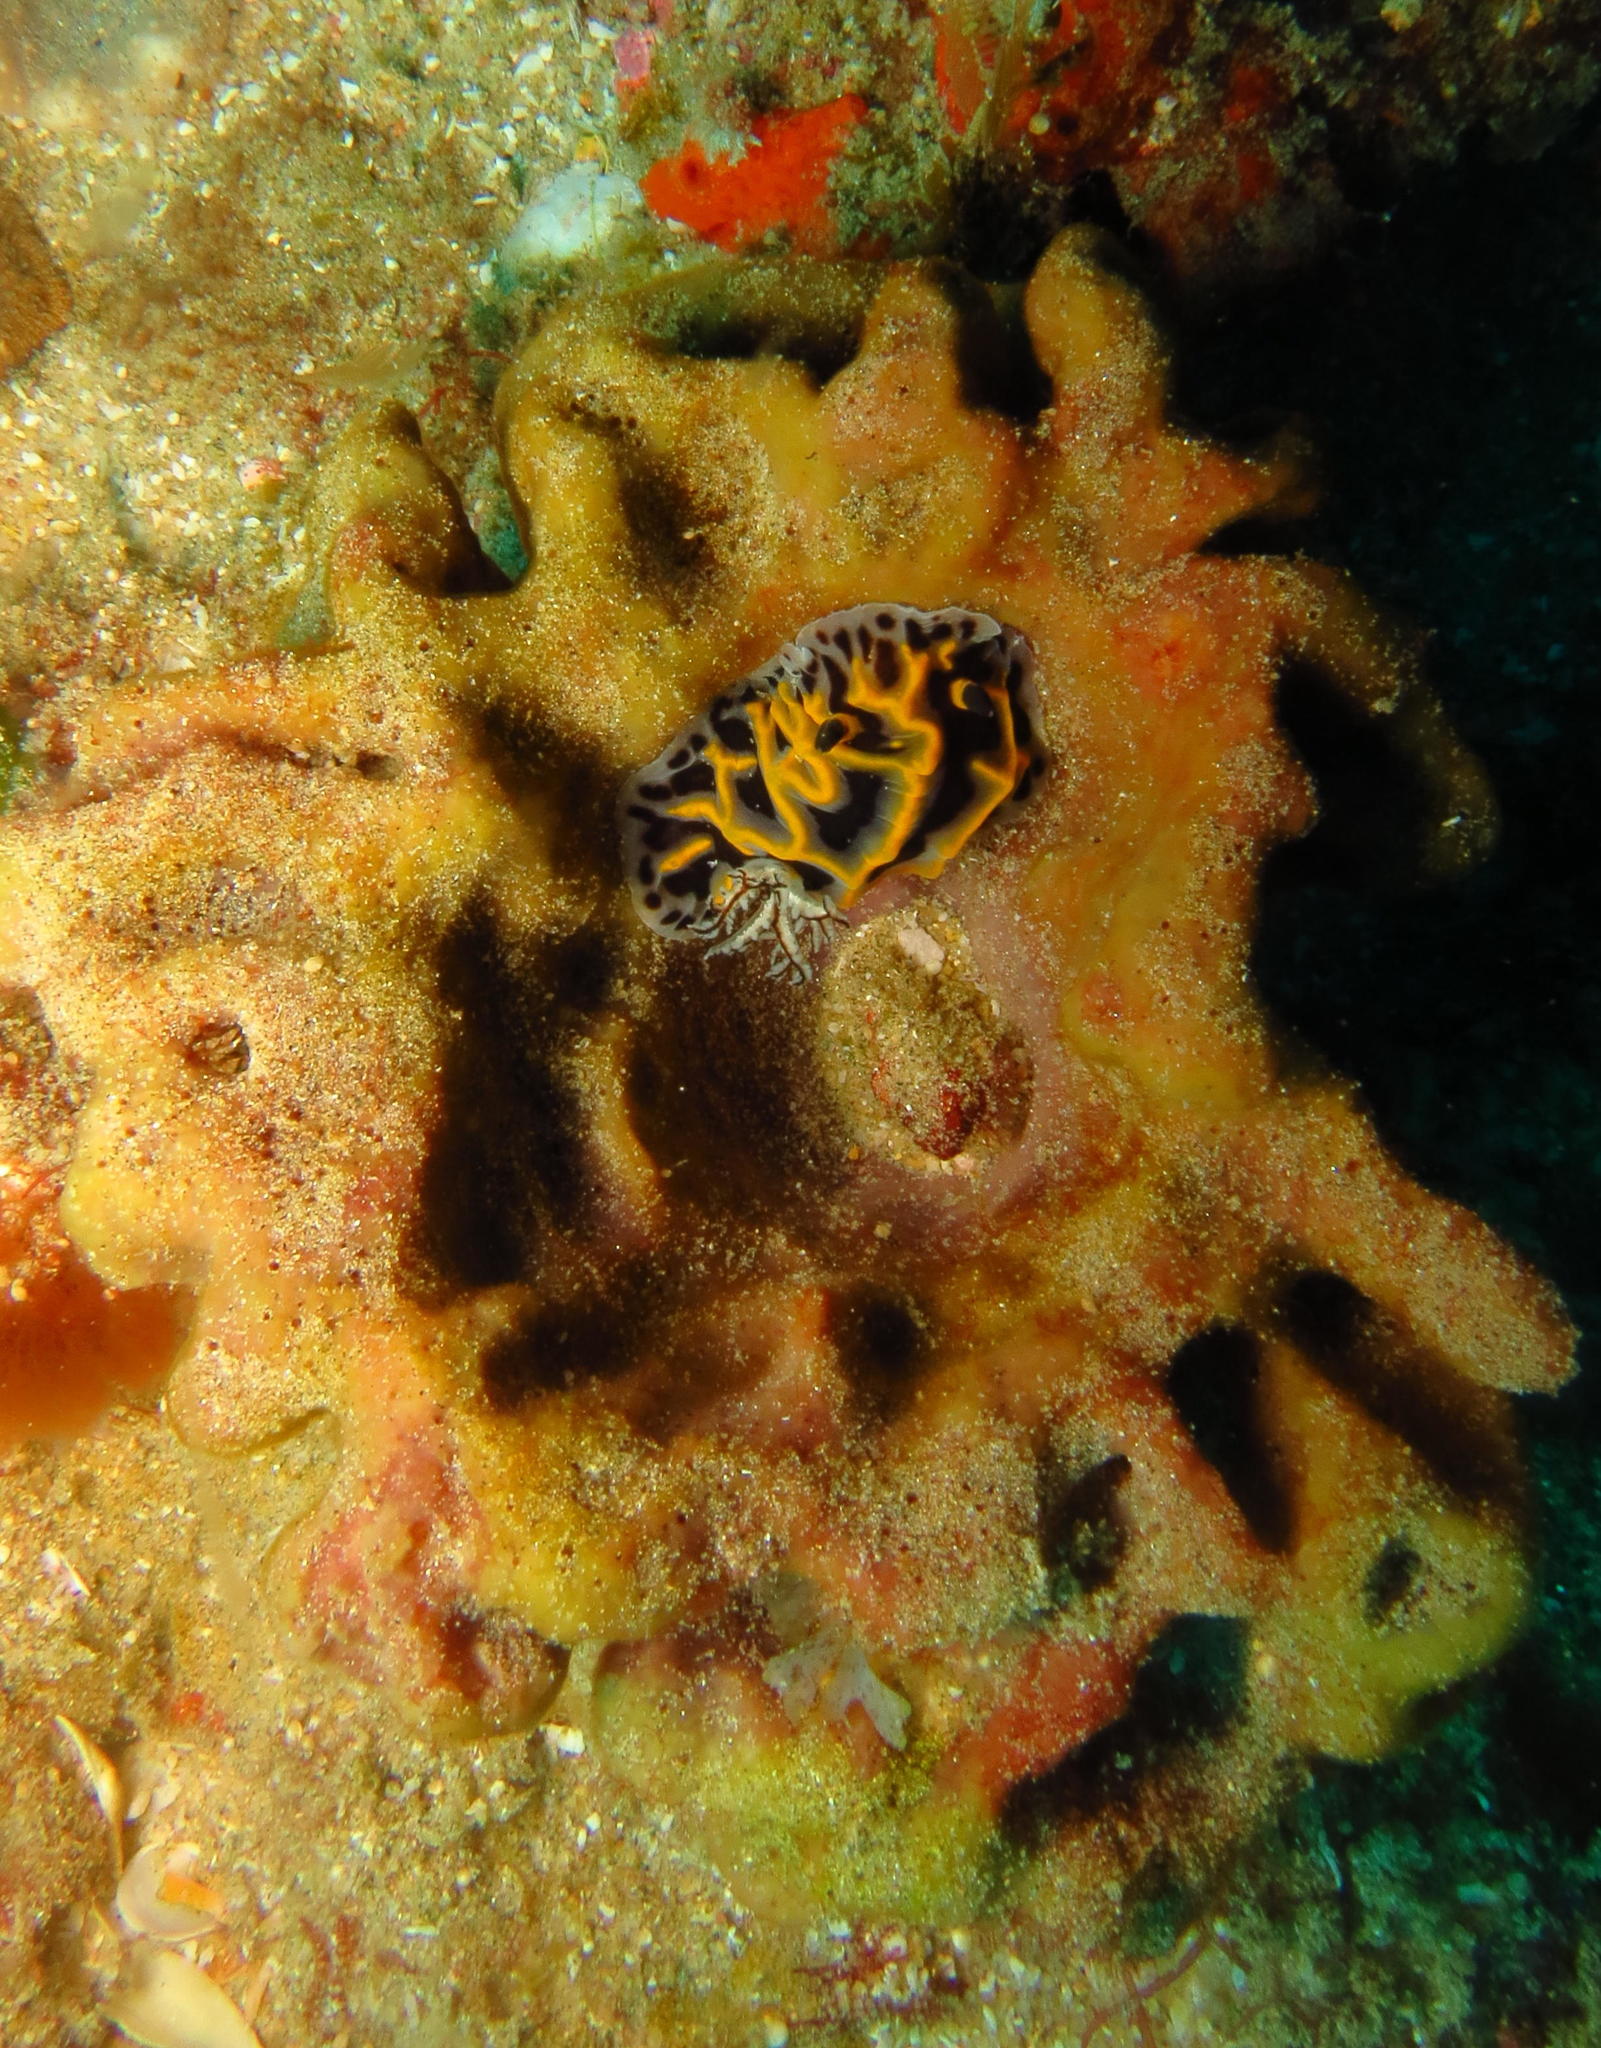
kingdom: Animalia
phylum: Mollusca
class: Gastropoda
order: Nudibranchia
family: Discodorididae
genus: Halgerda
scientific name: Halgerda wasinensis
